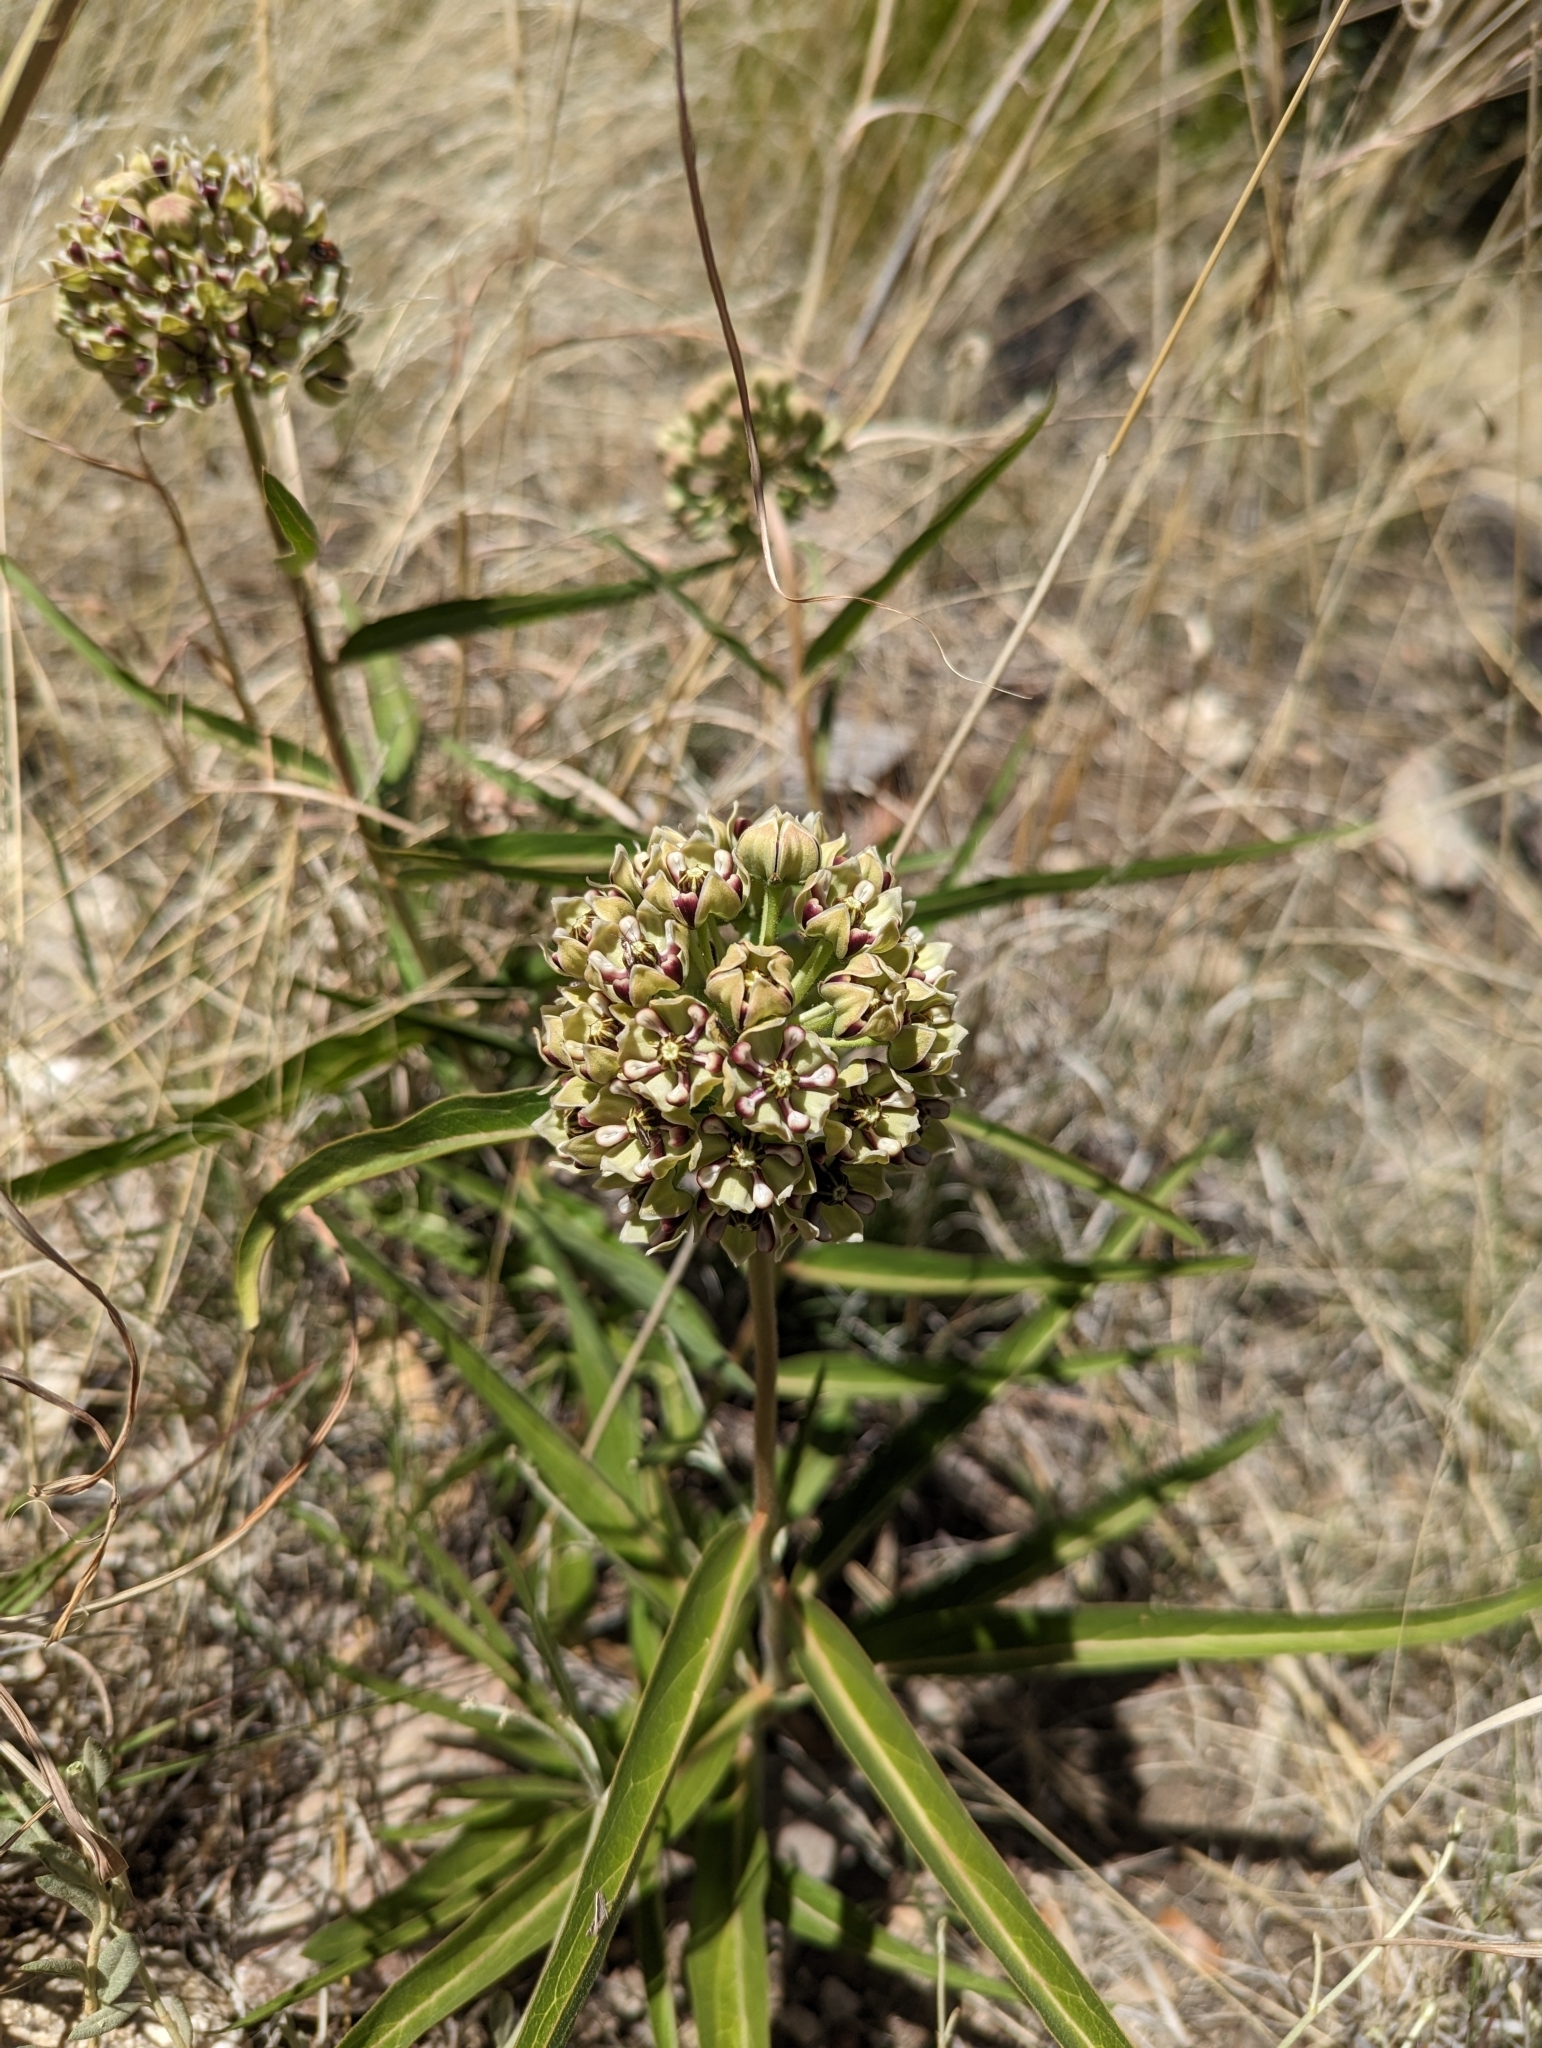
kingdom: Plantae
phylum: Tracheophyta
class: Magnoliopsida
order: Gentianales
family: Apocynaceae
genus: Asclepias
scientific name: Asclepias asperula
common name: Antelope horns
